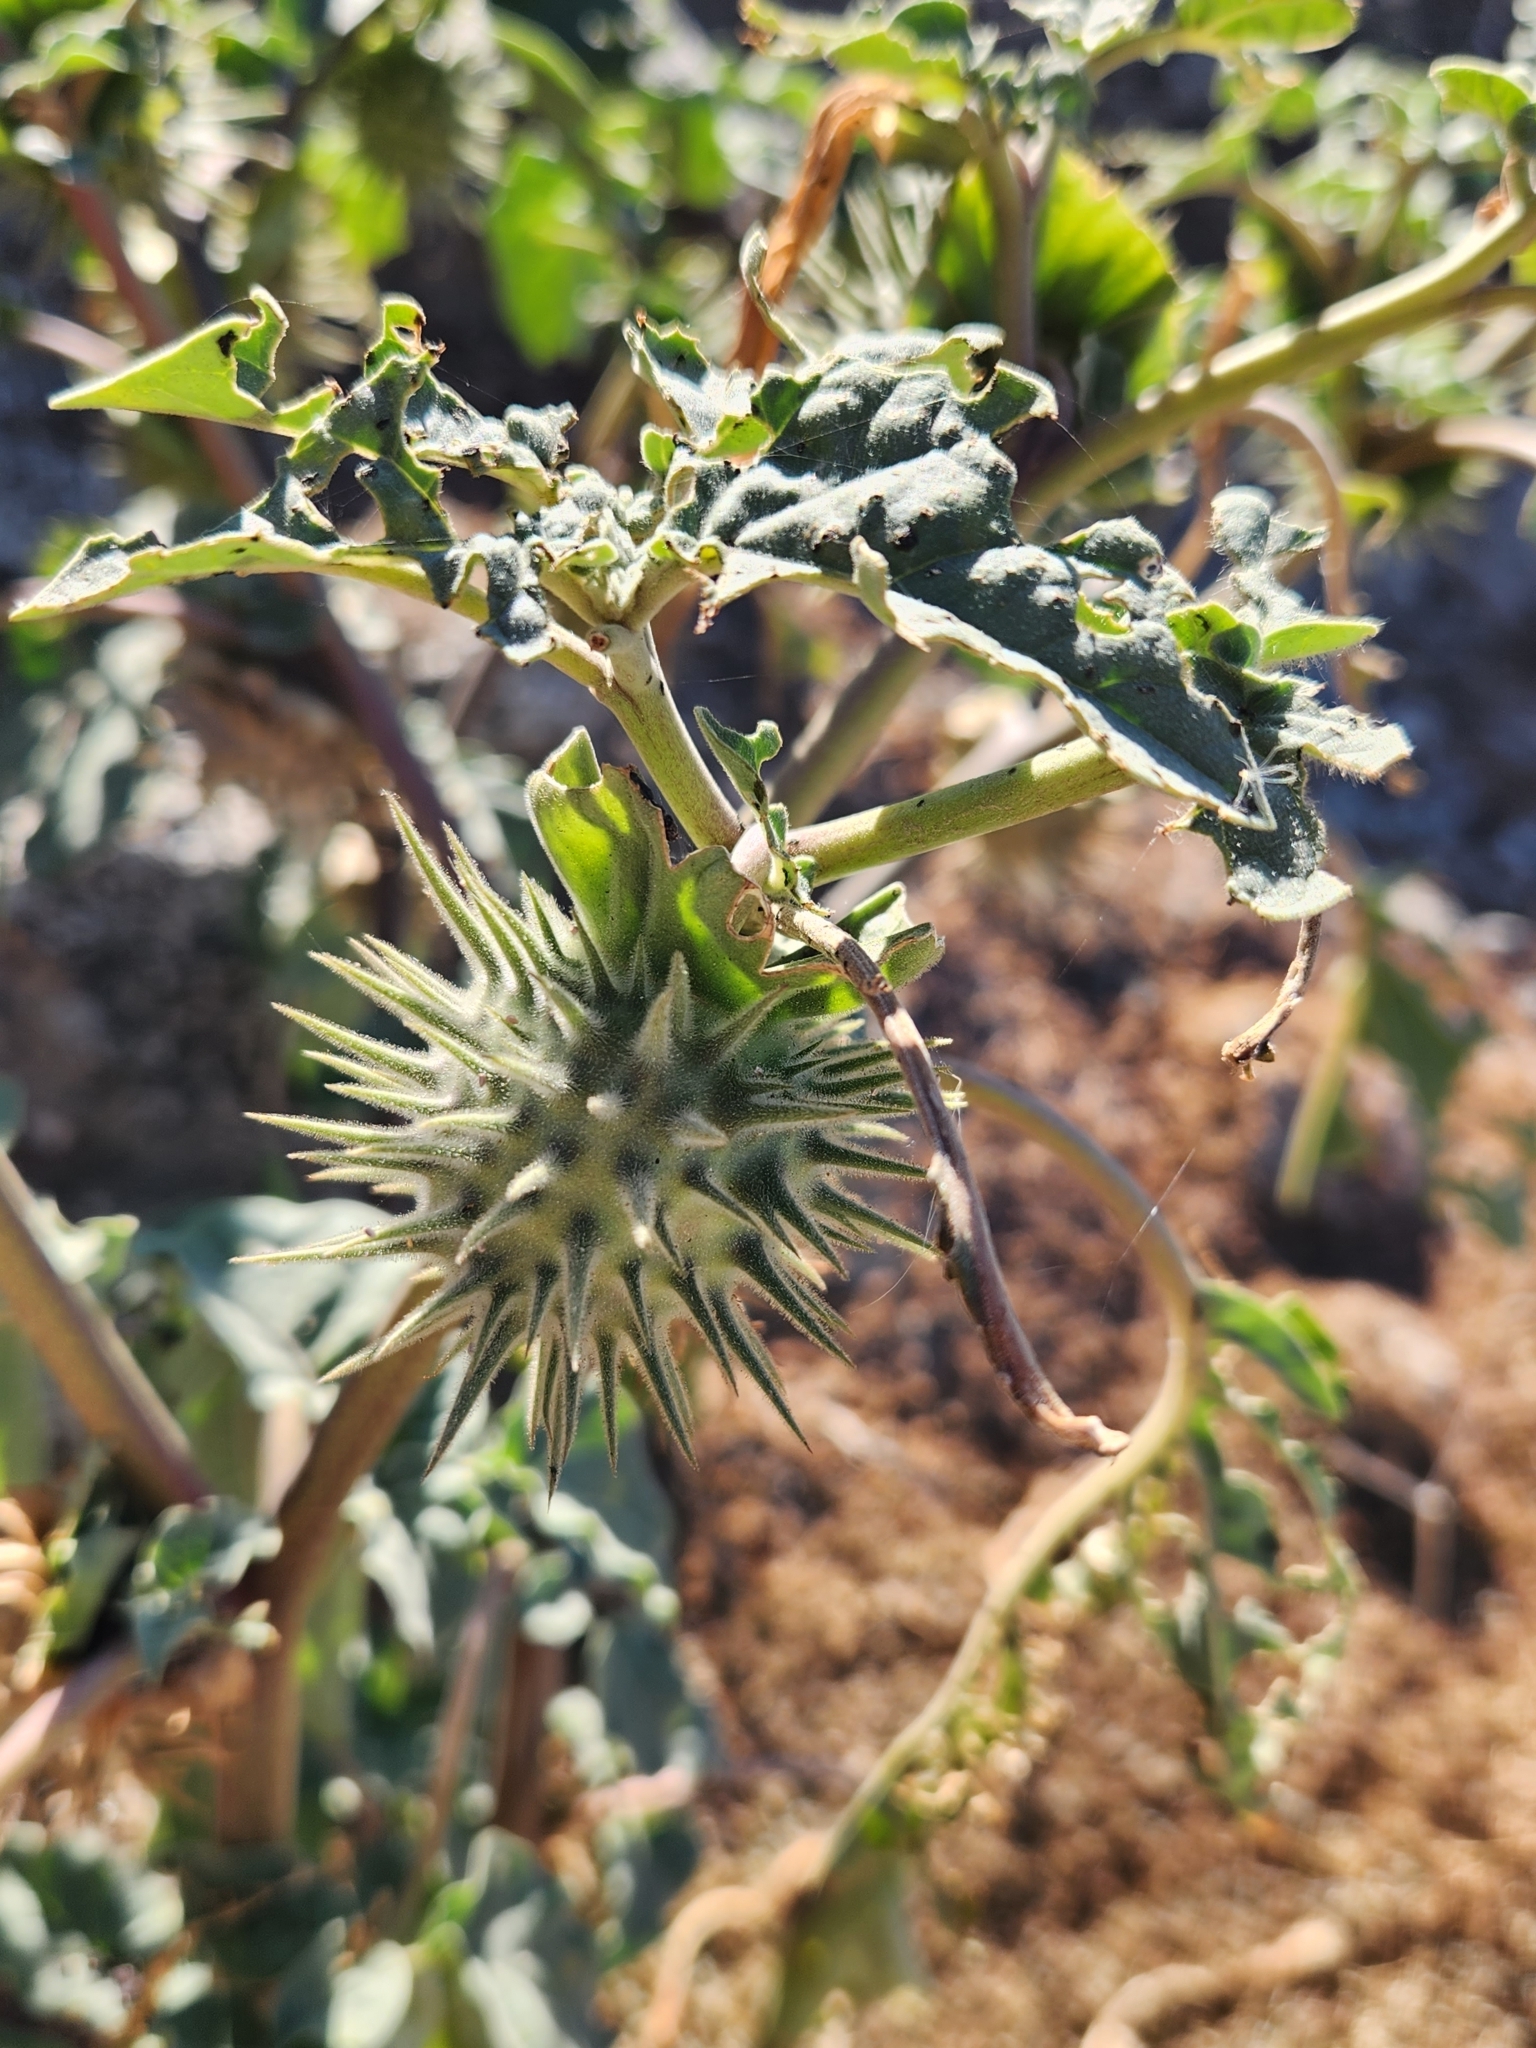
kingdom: Plantae
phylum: Tracheophyta
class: Magnoliopsida
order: Solanales
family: Solanaceae
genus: Datura
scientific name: Datura discolor
